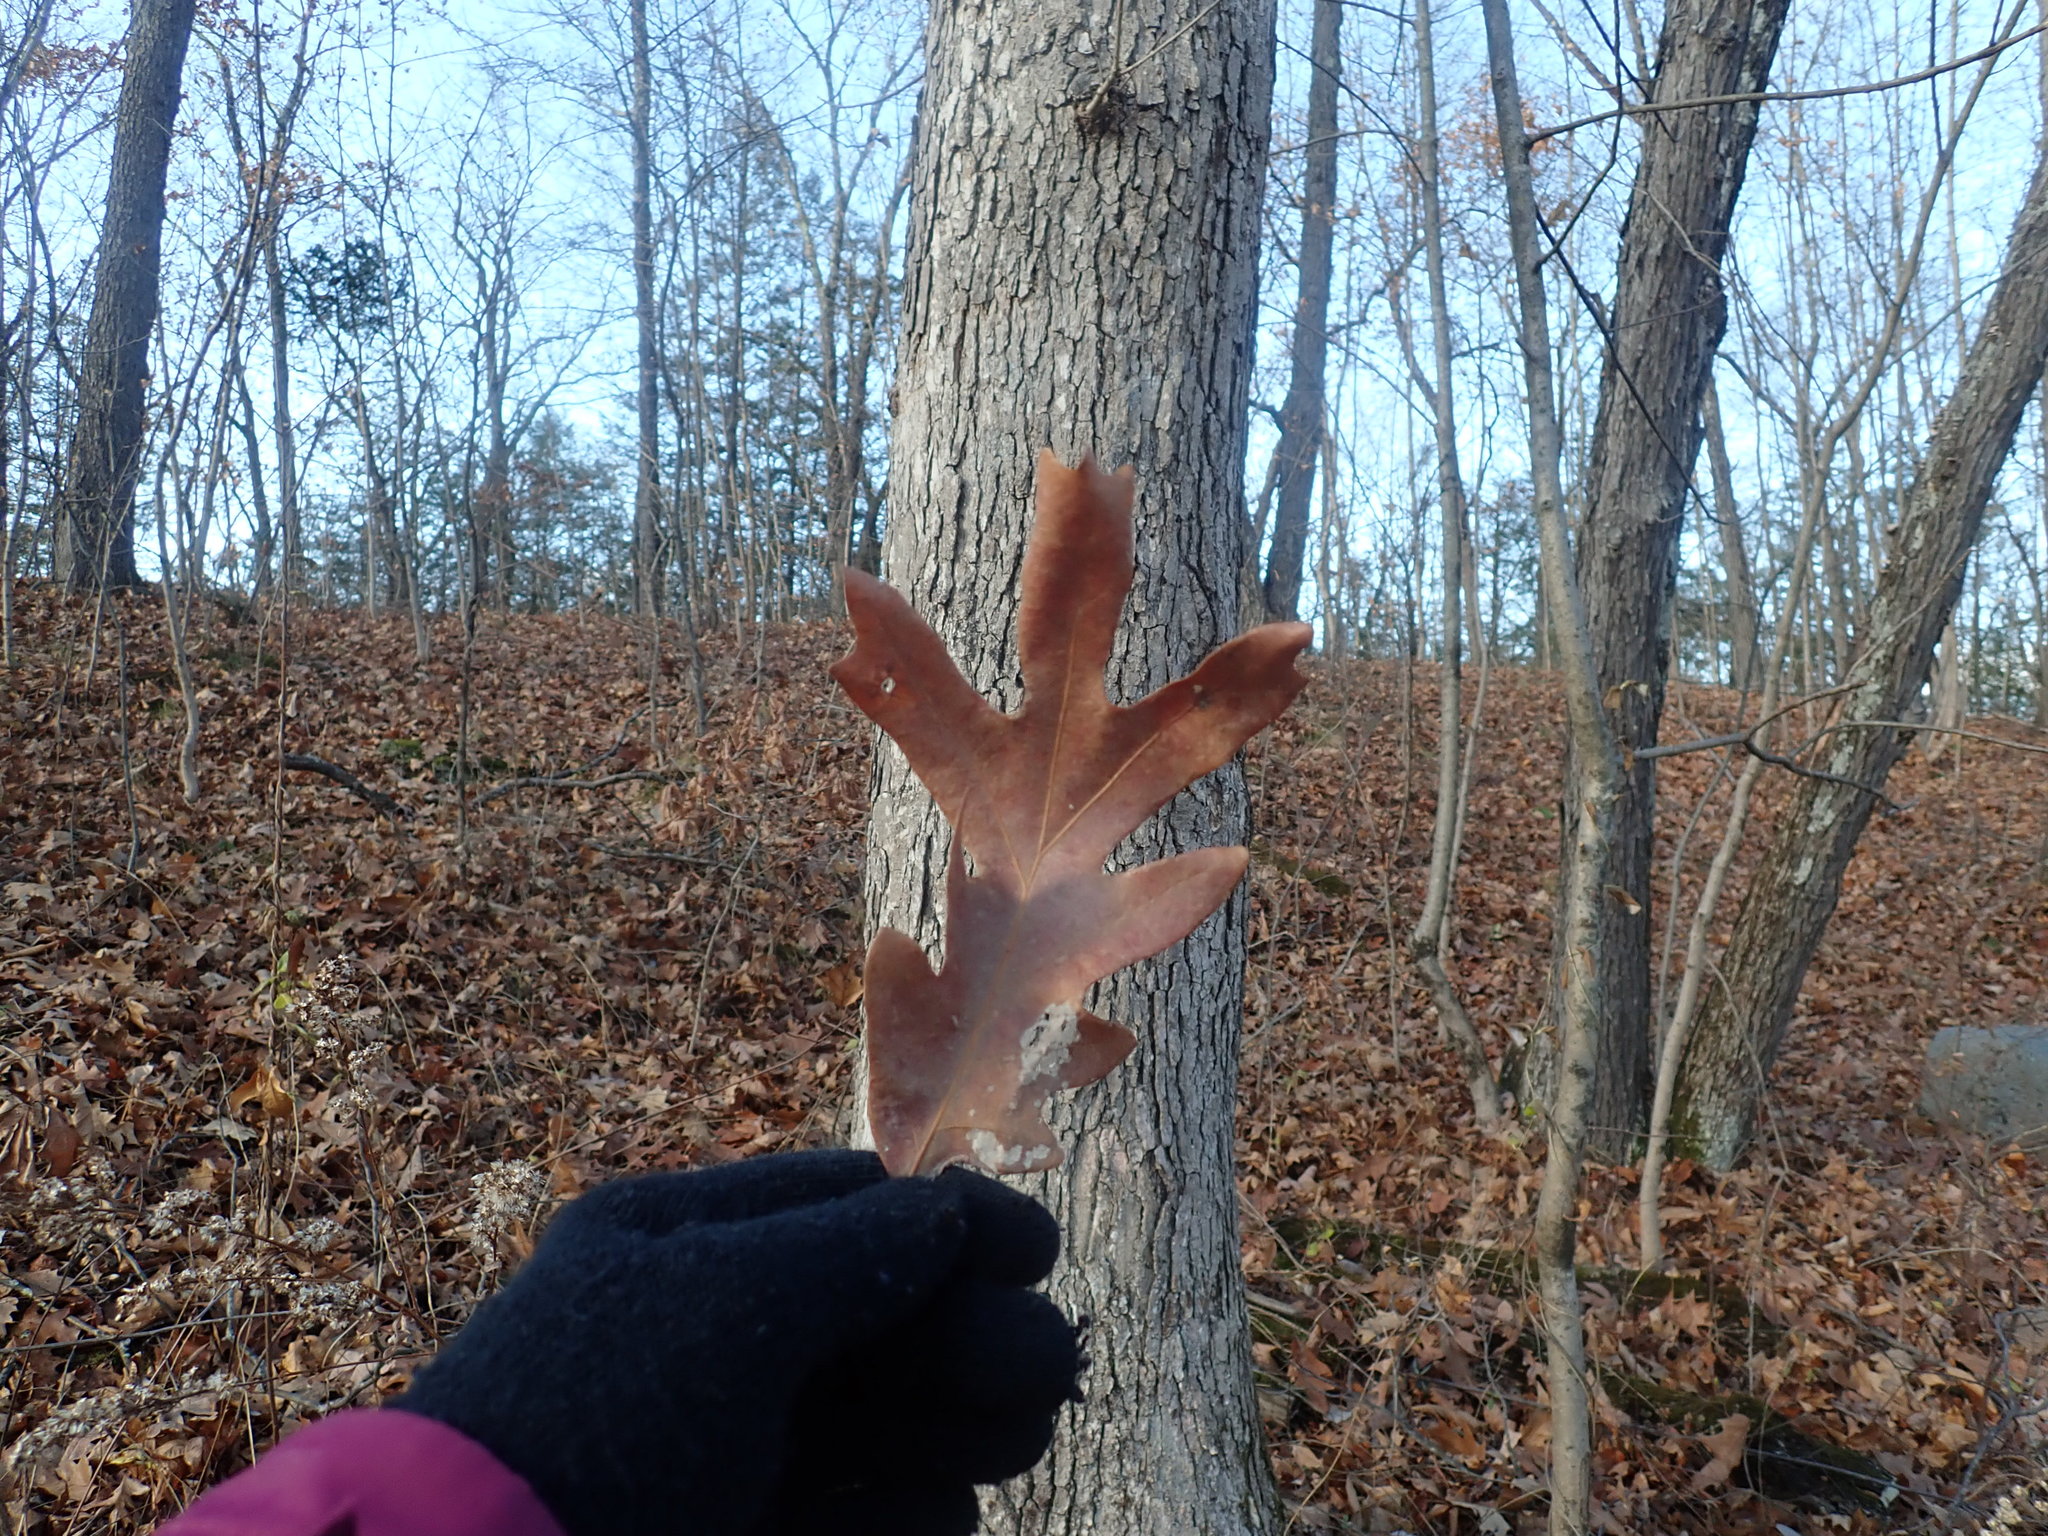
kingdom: Plantae
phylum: Tracheophyta
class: Magnoliopsida
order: Fagales
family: Fagaceae
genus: Quercus
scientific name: Quercus alba
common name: White oak
